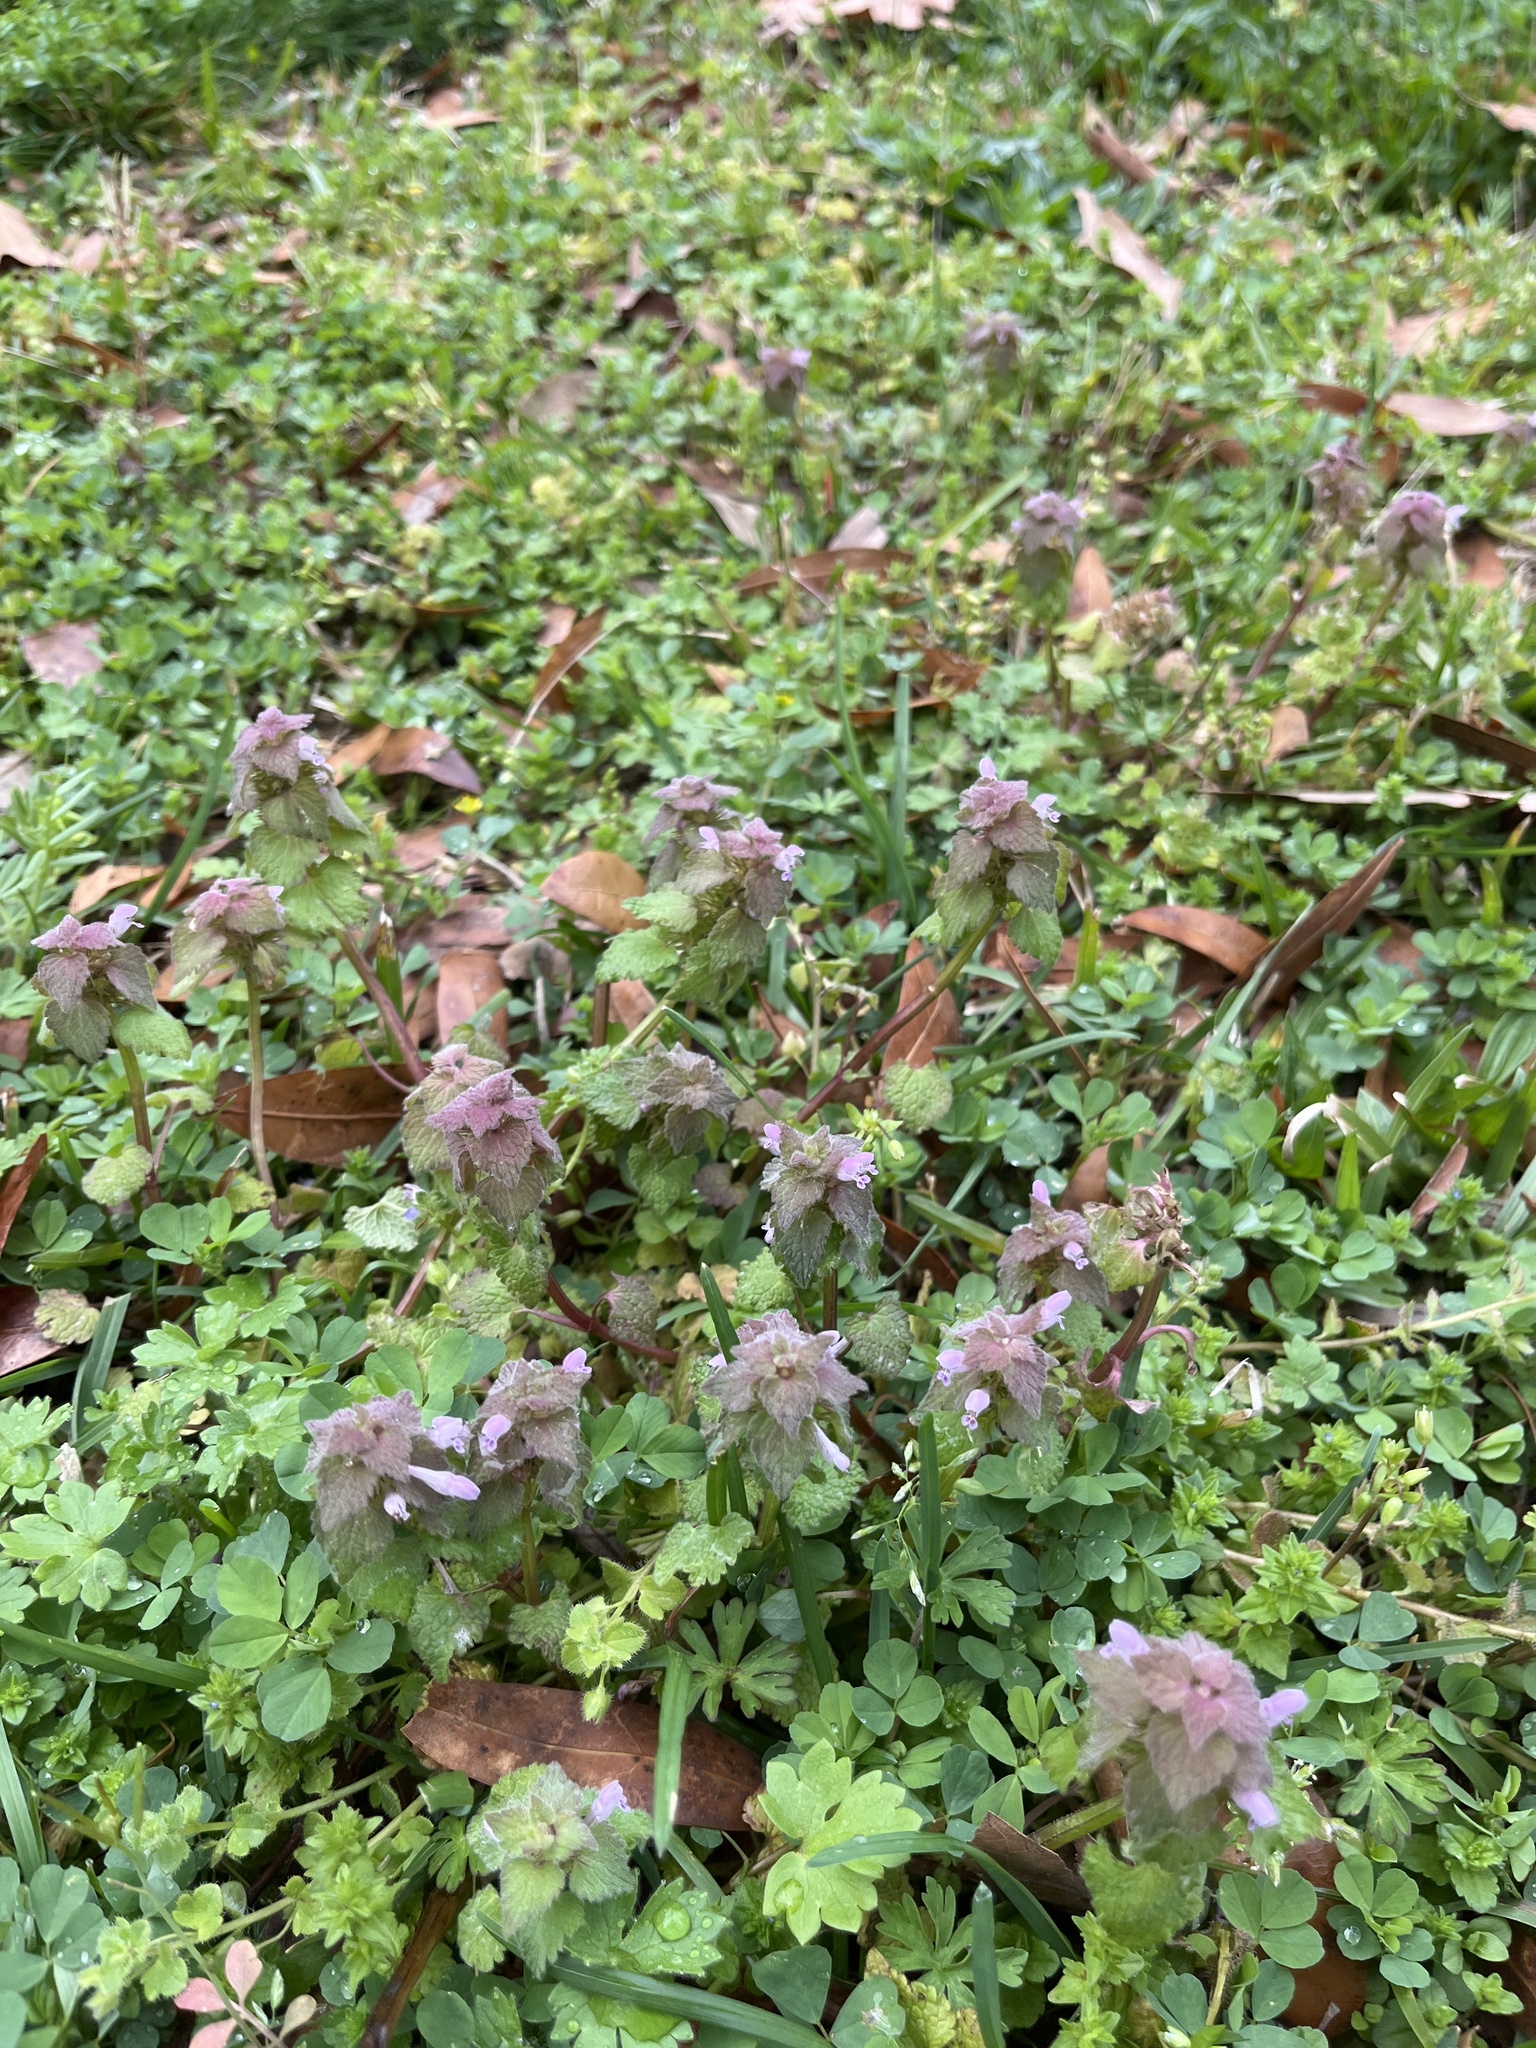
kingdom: Plantae
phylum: Tracheophyta
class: Magnoliopsida
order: Lamiales
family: Lamiaceae
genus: Lamium
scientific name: Lamium purpureum
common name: Red dead-nettle
